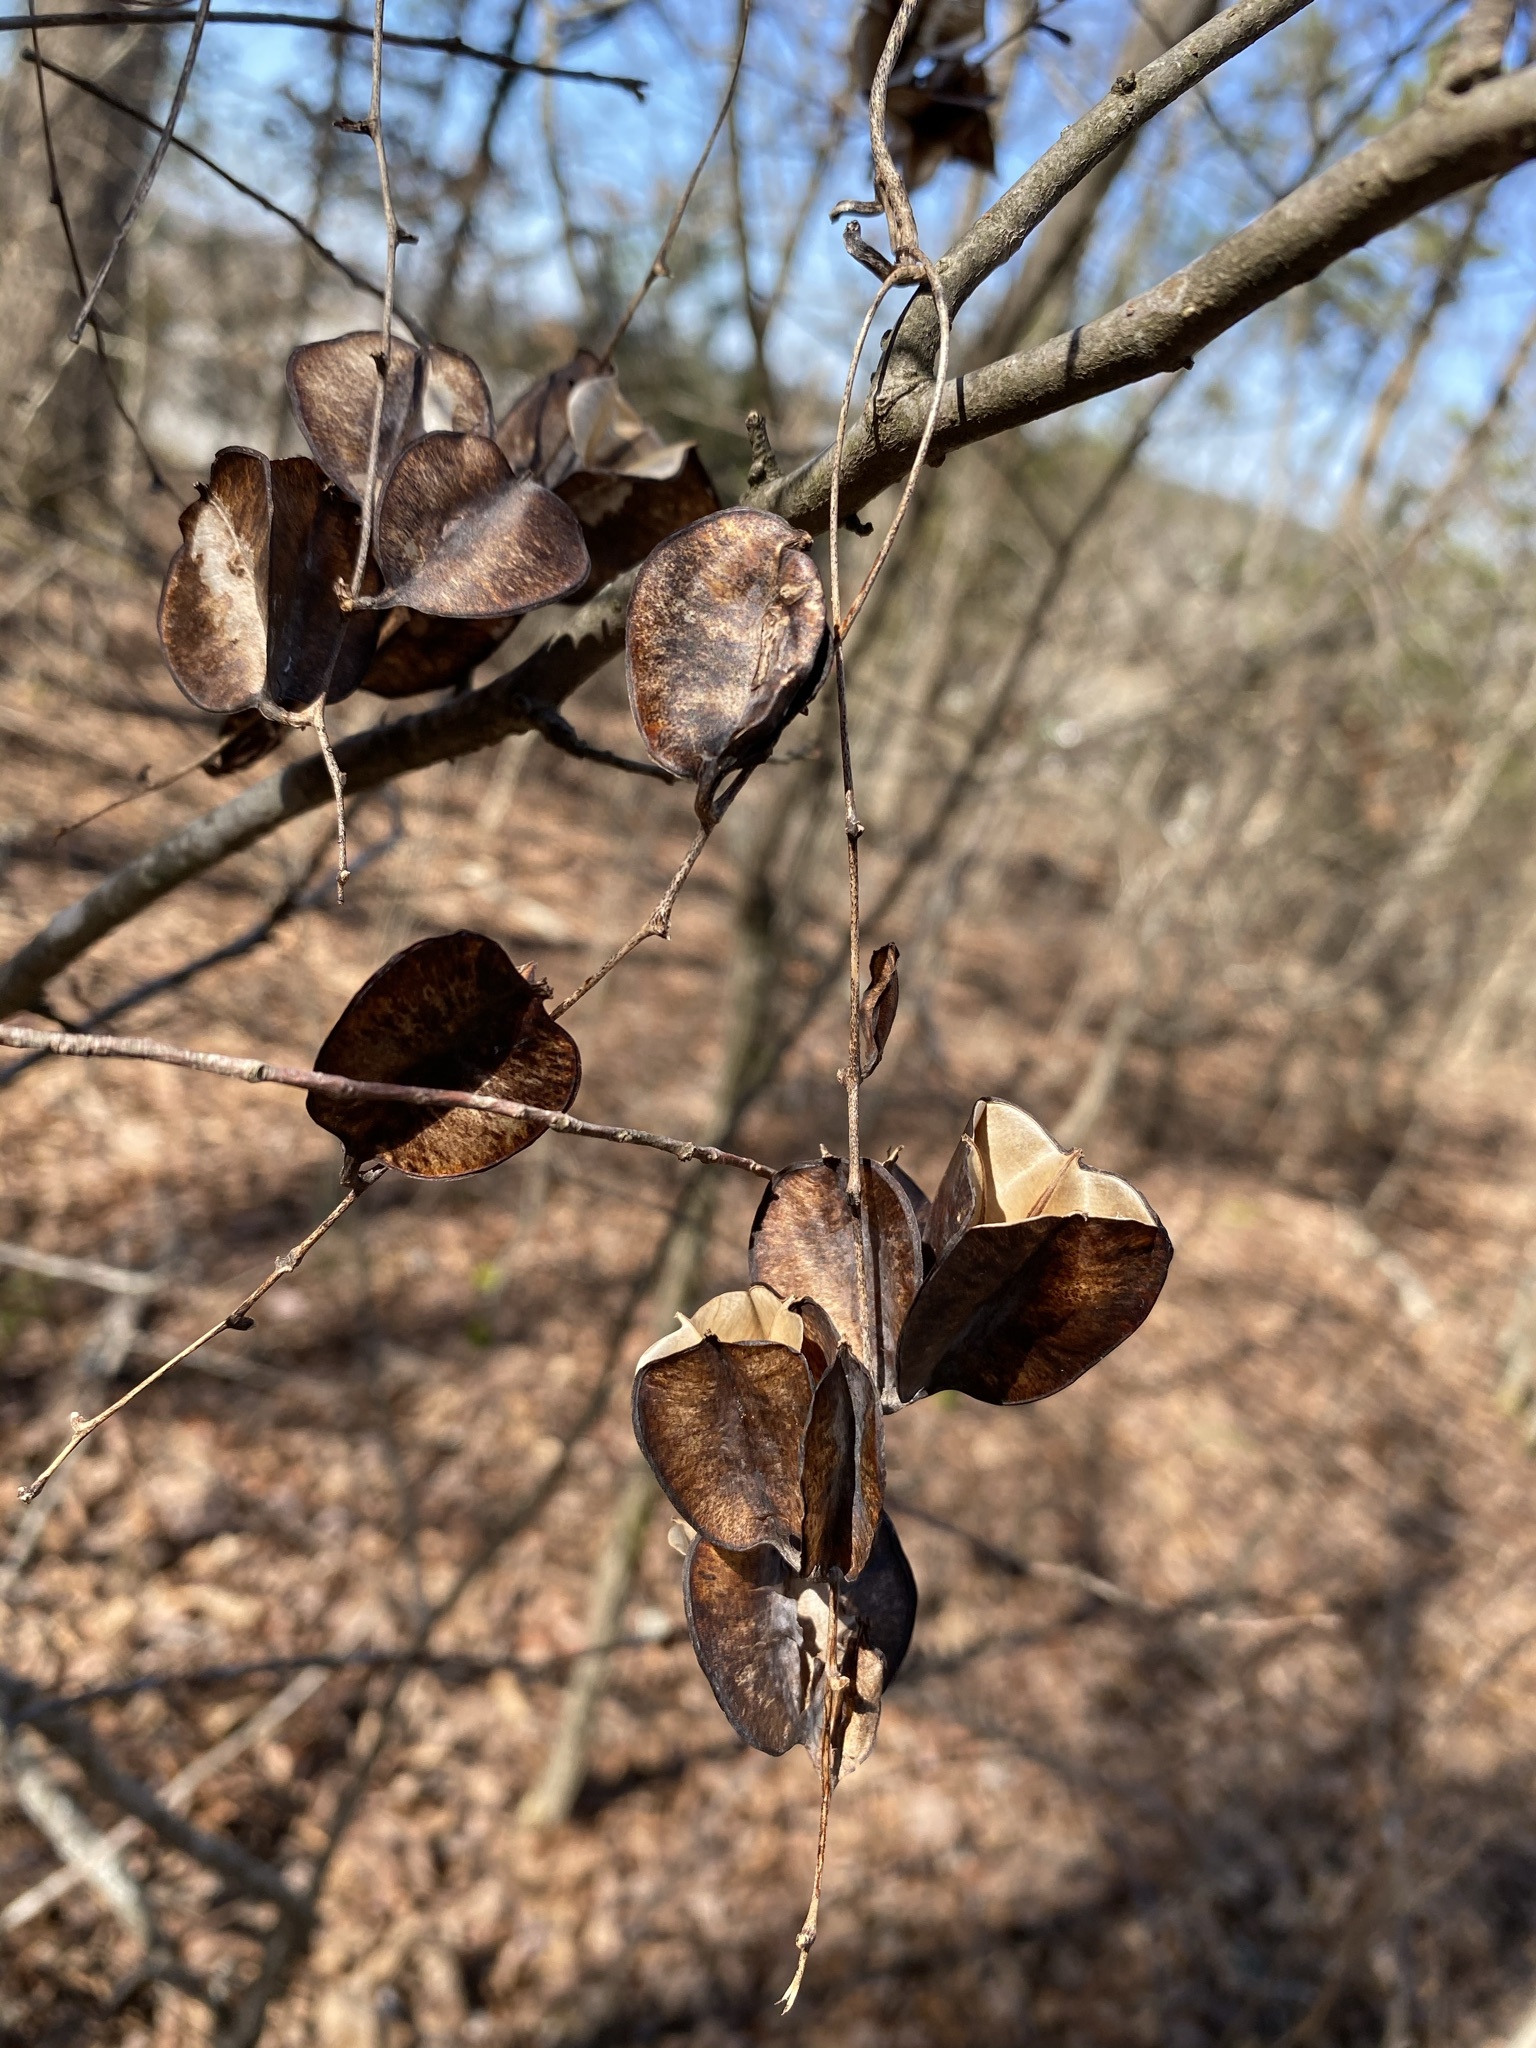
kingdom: Plantae
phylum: Tracheophyta
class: Liliopsida
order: Dioscoreales
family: Dioscoreaceae
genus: Dioscorea
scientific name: Dioscorea villosa
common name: Wild yam
